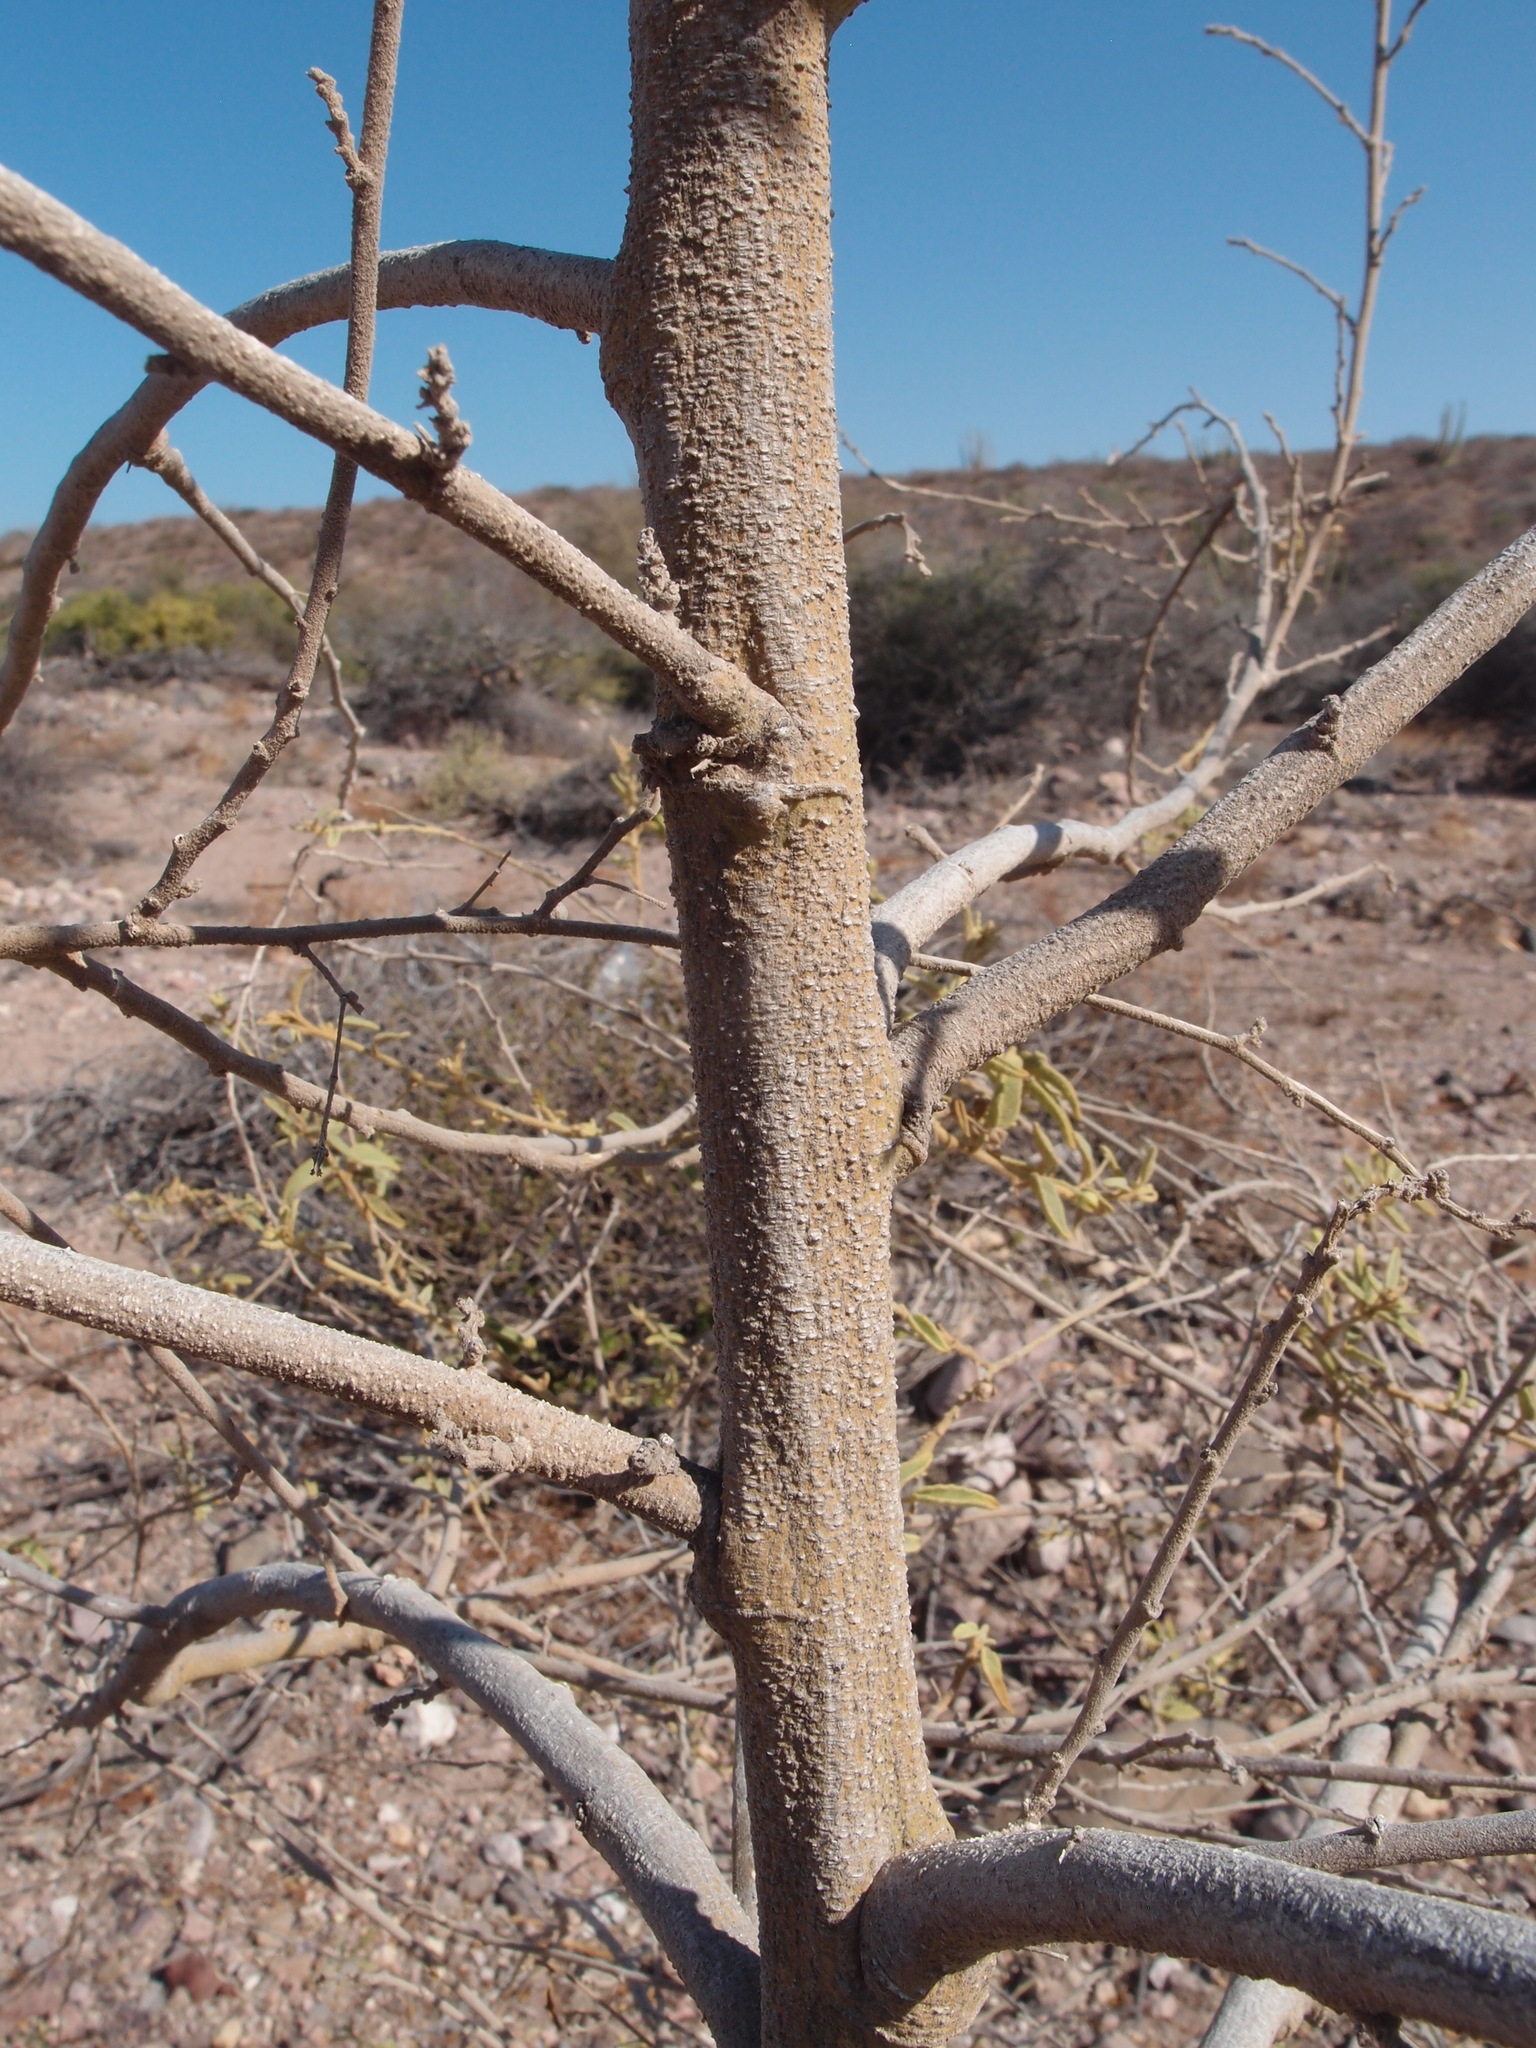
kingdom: Plantae
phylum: Tracheophyta
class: Magnoliopsida
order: Malvales
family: Malvaceae
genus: Horsfordia
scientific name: Horsfordia newberryi
